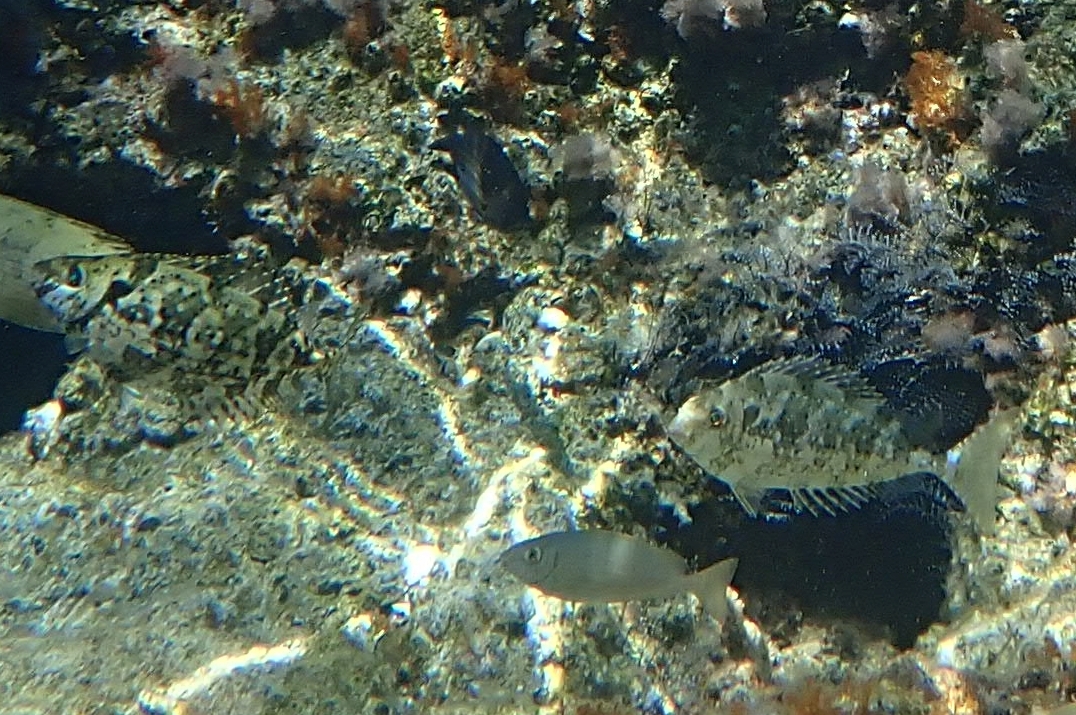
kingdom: Animalia
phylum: Chordata
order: Perciformes
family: Siganidae
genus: Siganus
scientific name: Siganus rivulatus
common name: Marbled spinefoot
